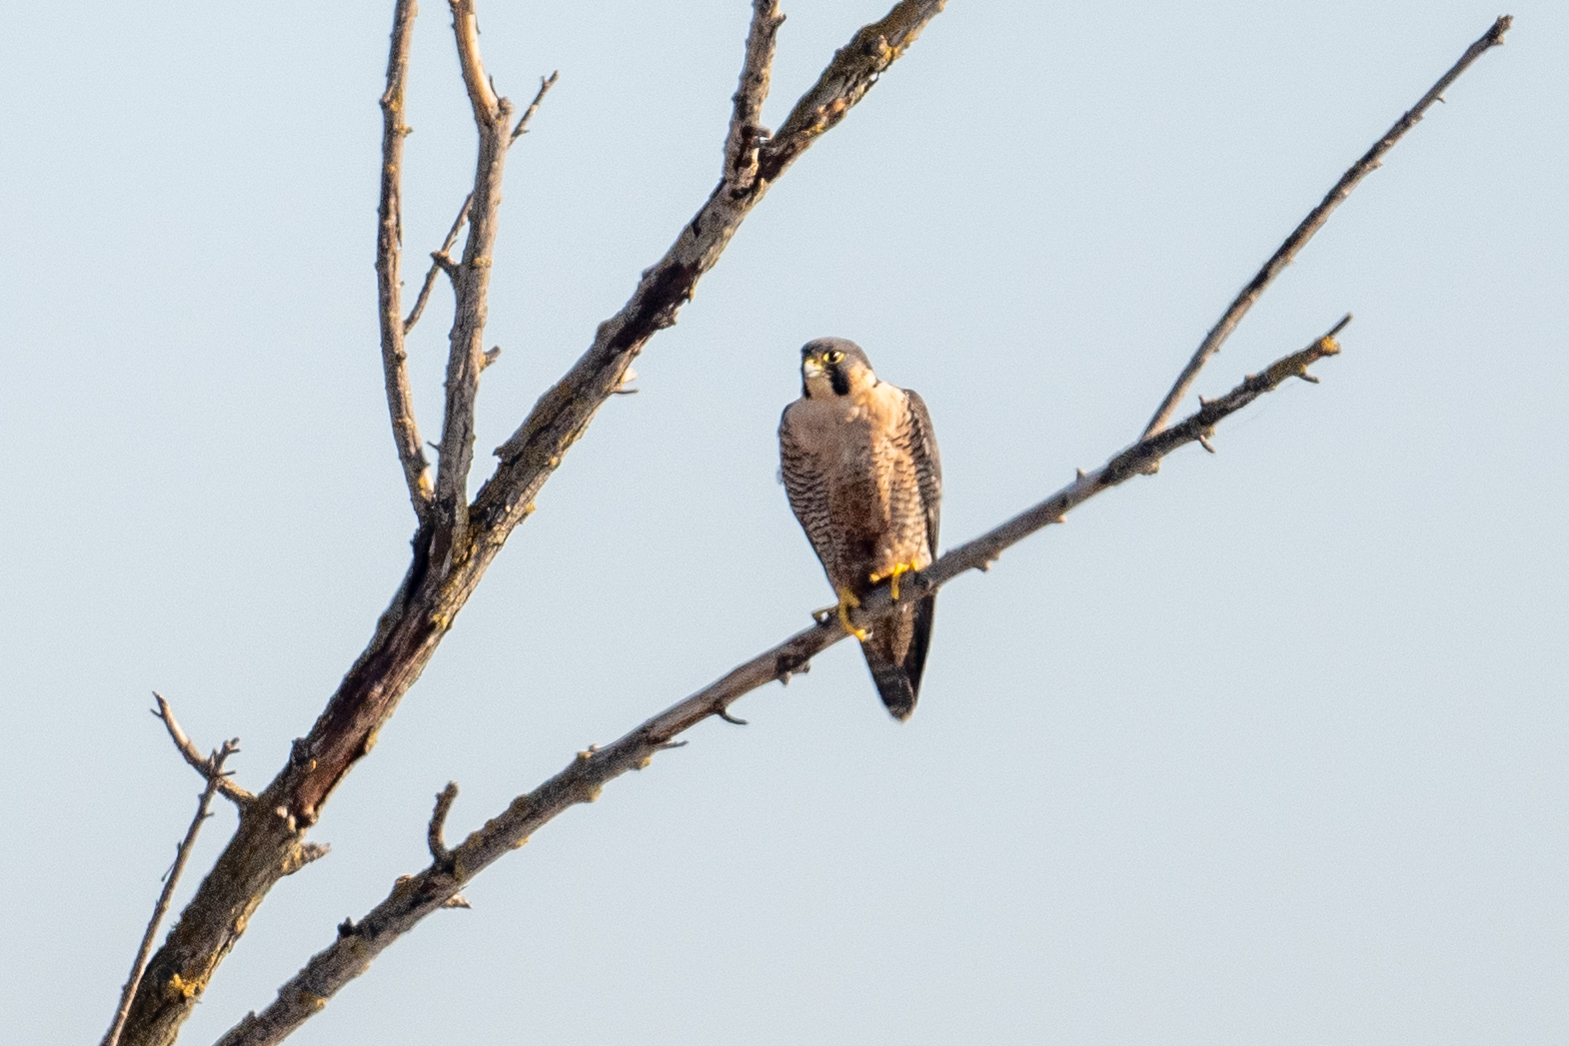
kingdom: Animalia
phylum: Chordata
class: Aves
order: Falconiformes
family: Falconidae
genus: Falco
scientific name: Falco peregrinus
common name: Peregrine falcon
